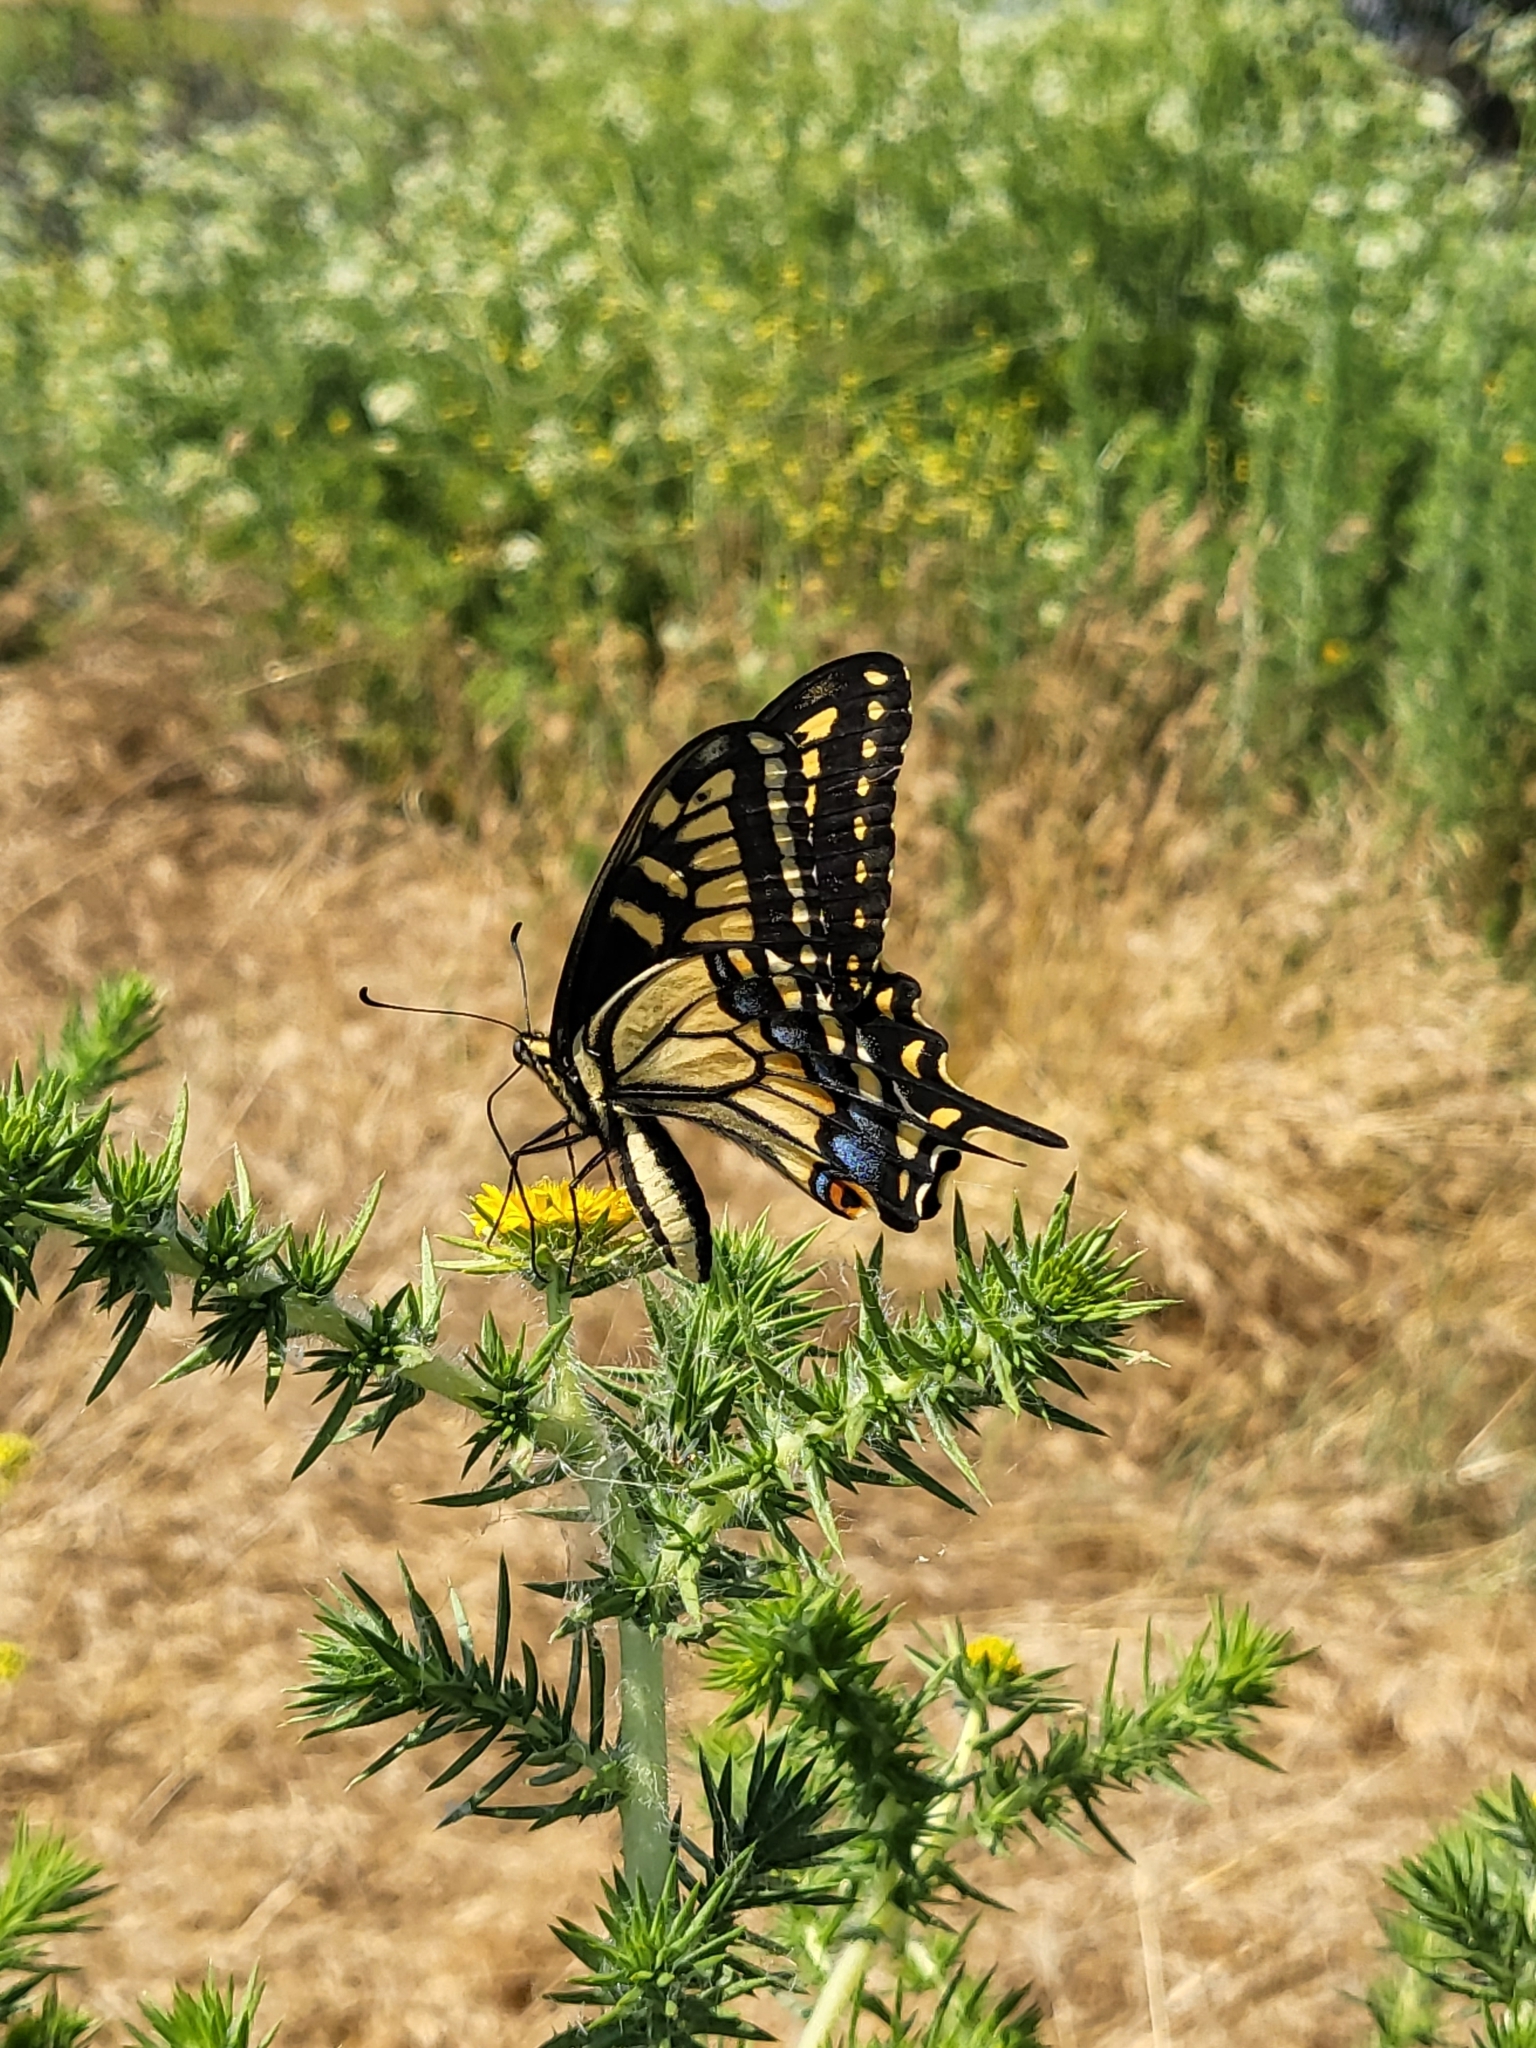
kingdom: Animalia
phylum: Arthropoda
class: Insecta
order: Lepidoptera
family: Papilionidae
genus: Papilio
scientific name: Papilio zelicaon
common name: Anise swallowtail
